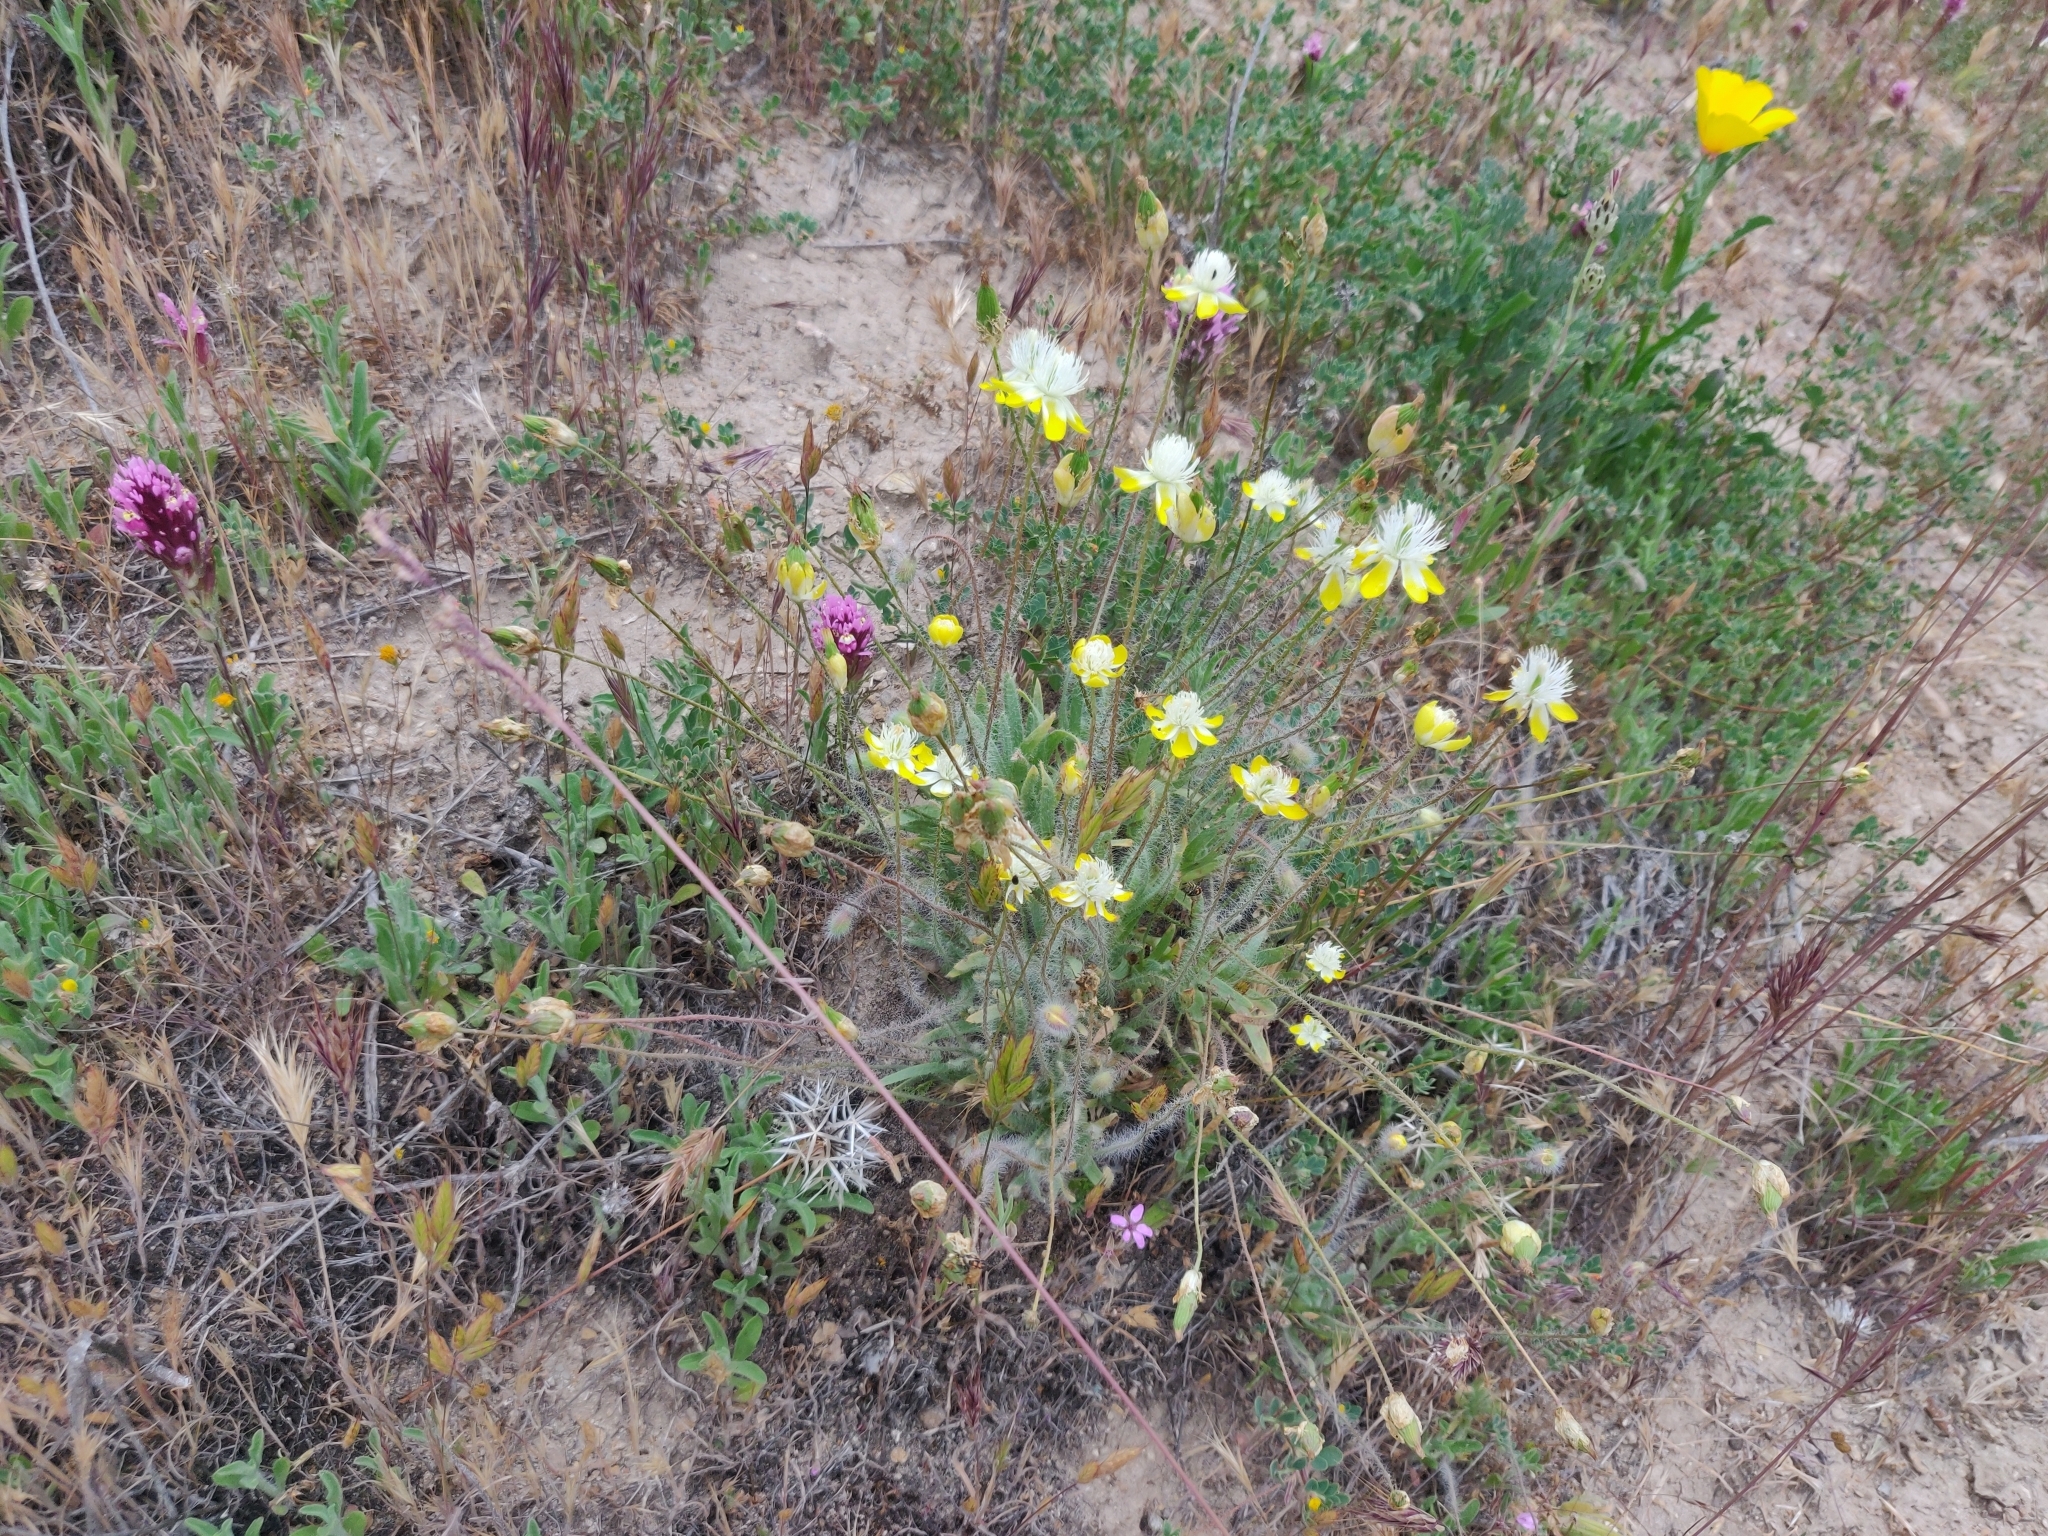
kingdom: Plantae
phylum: Tracheophyta
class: Magnoliopsida
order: Ranunculales
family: Papaveraceae
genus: Platystemon
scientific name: Platystemon californicus
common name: Cream-cups
